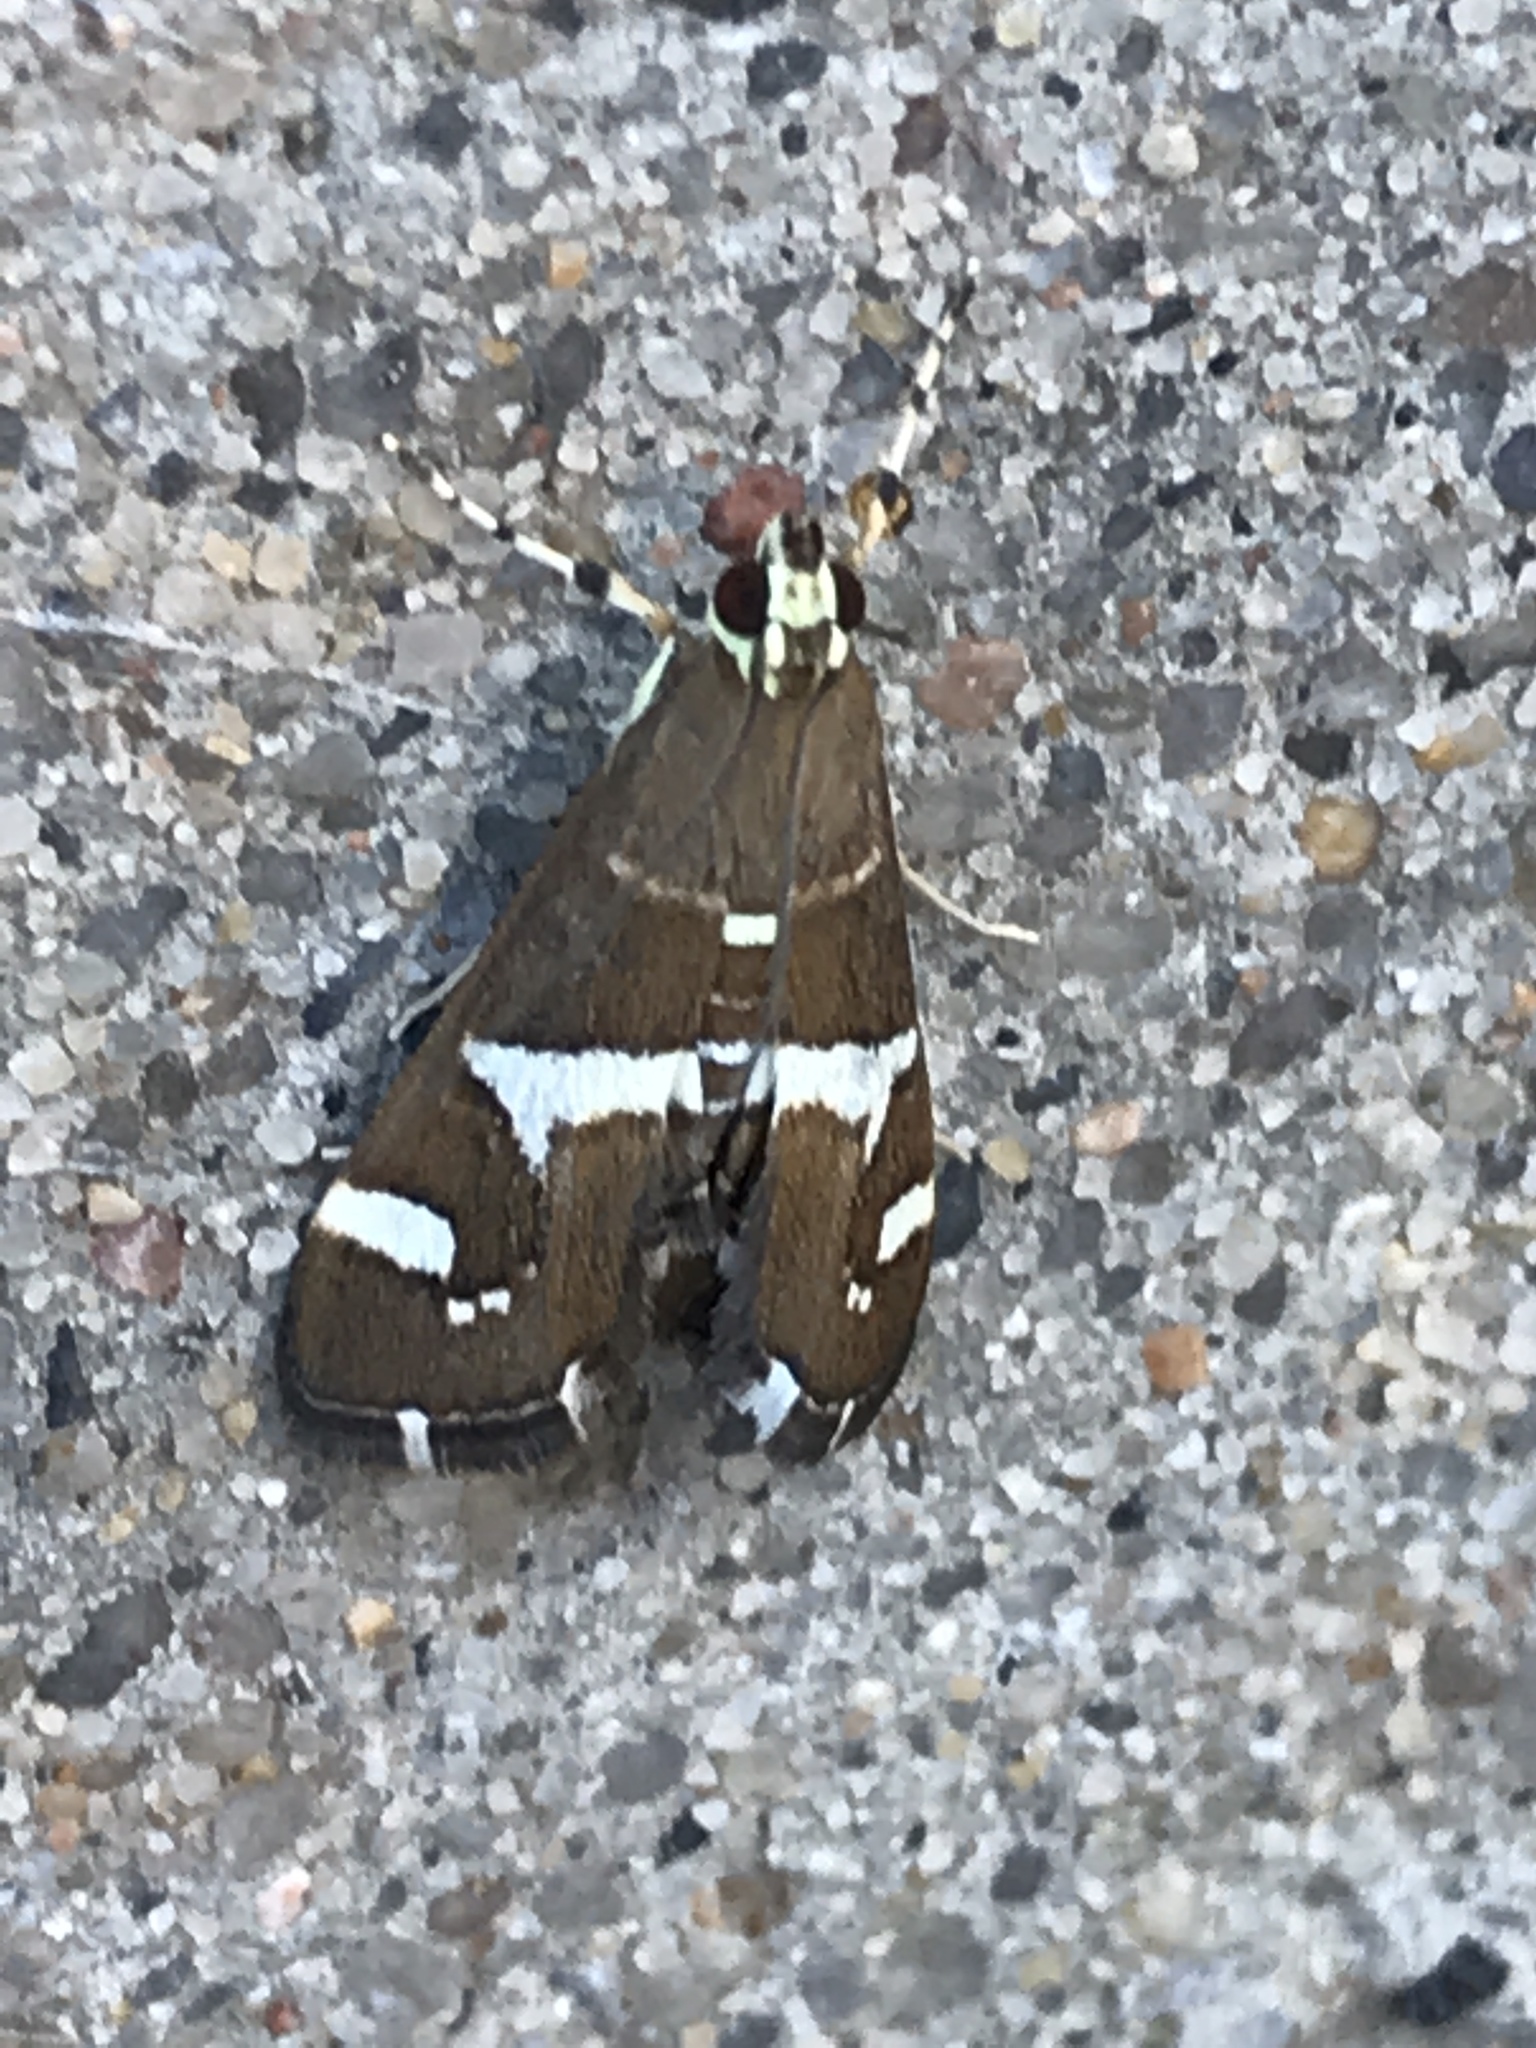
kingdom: Animalia
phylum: Arthropoda
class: Insecta
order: Lepidoptera
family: Crambidae
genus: Spoladea
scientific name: Spoladea recurvalis
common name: Beet webworm moth
